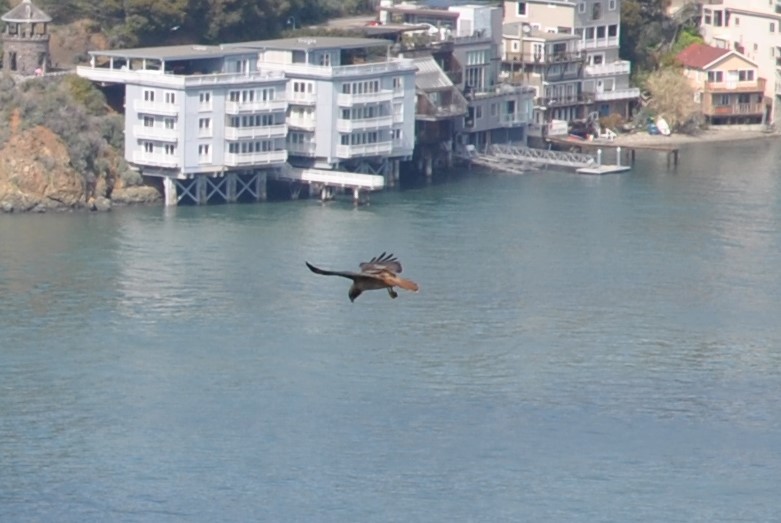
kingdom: Animalia
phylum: Chordata
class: Aves
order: Accipitriformes
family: Accipitridae
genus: Buteo
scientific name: Buteo jamaicensis
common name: Red-tailed hawk
